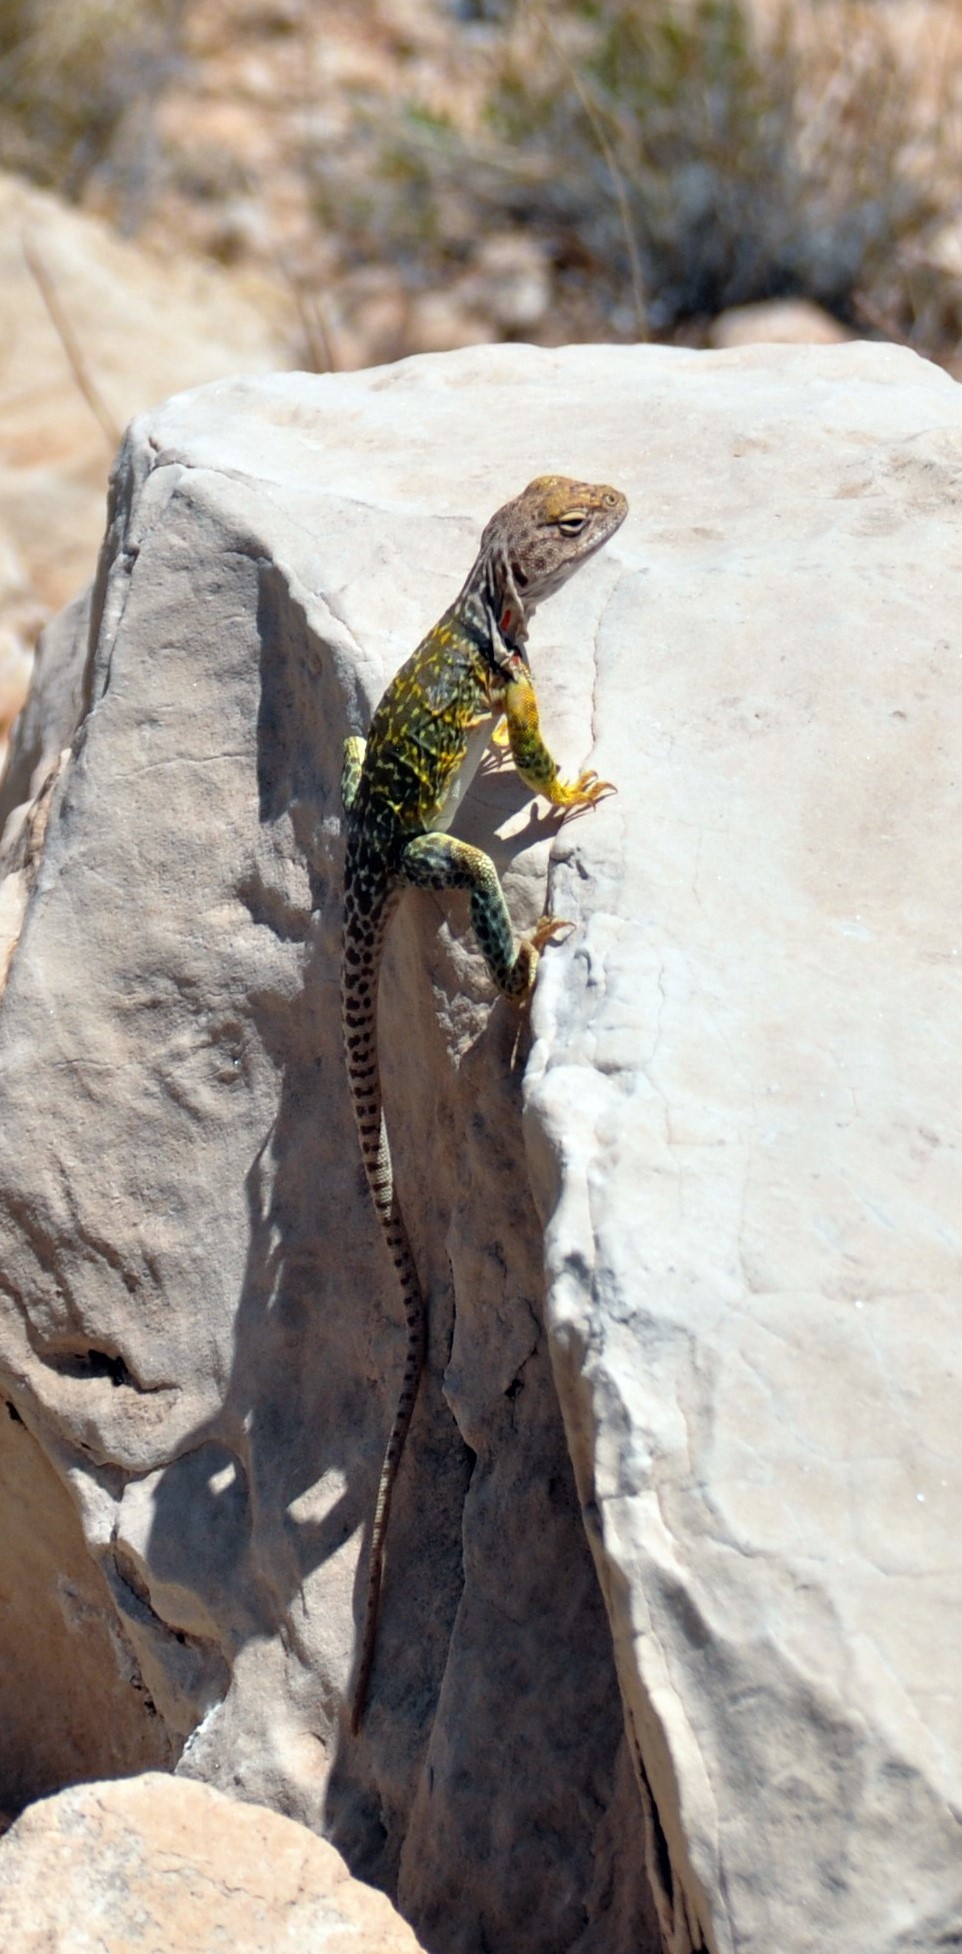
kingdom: Animalia
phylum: Chordata
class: Squamata
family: Crotaphytidae
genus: Crotaphytus
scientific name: Crotaphytus collaris
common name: Collared lizard
